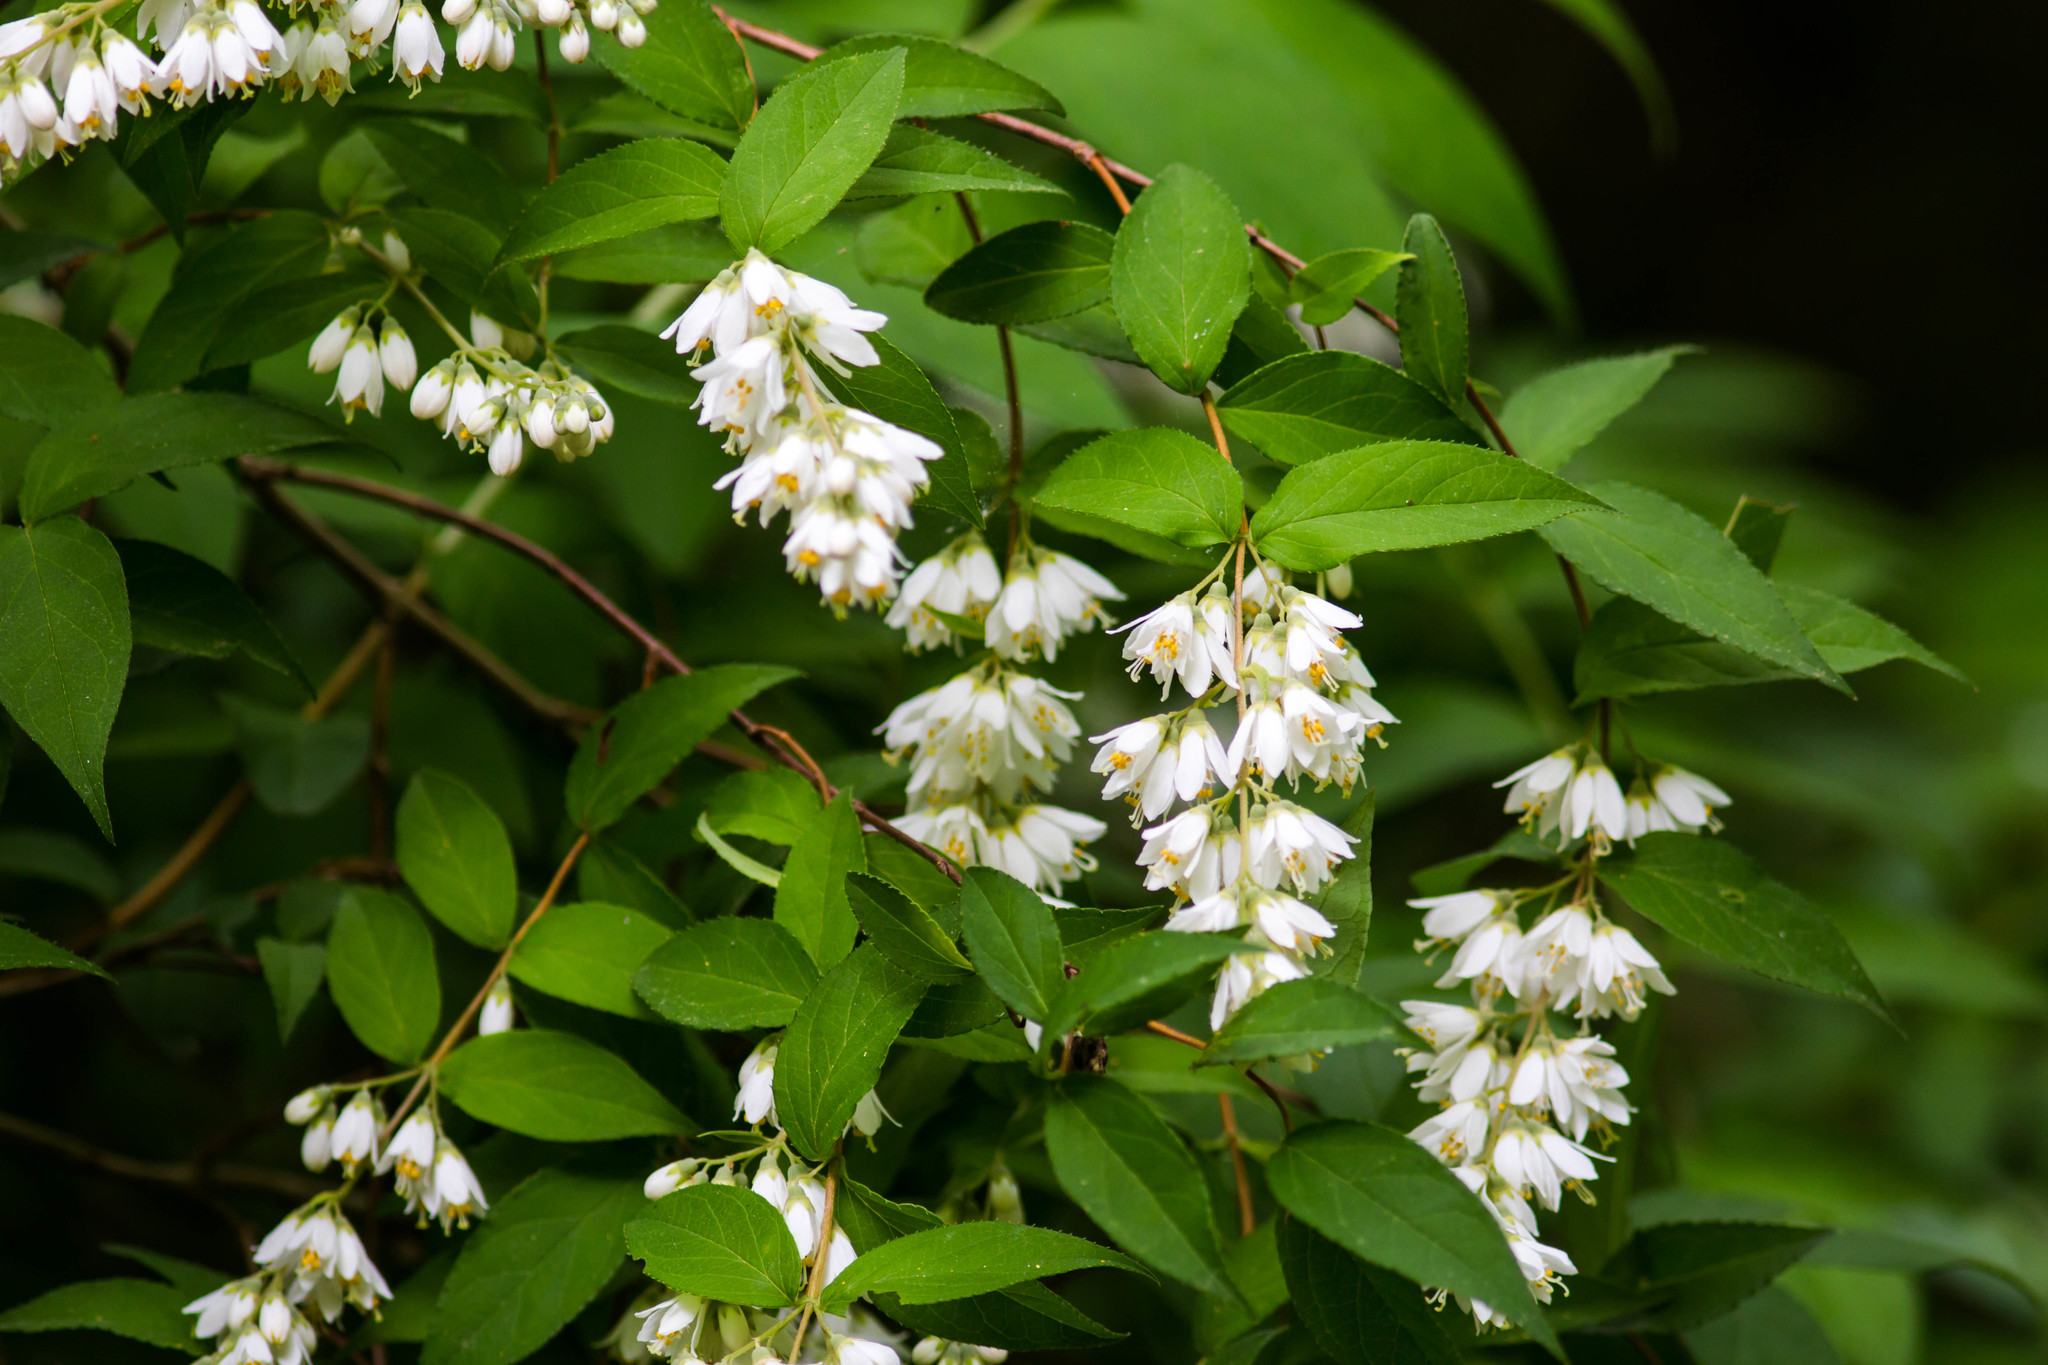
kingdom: Plantae
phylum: Tracheophyta
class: Magnoliopsida
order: Cornales
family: Hydrangeaceae
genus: Deutzia
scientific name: Deutzia crenata
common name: Deutzia
